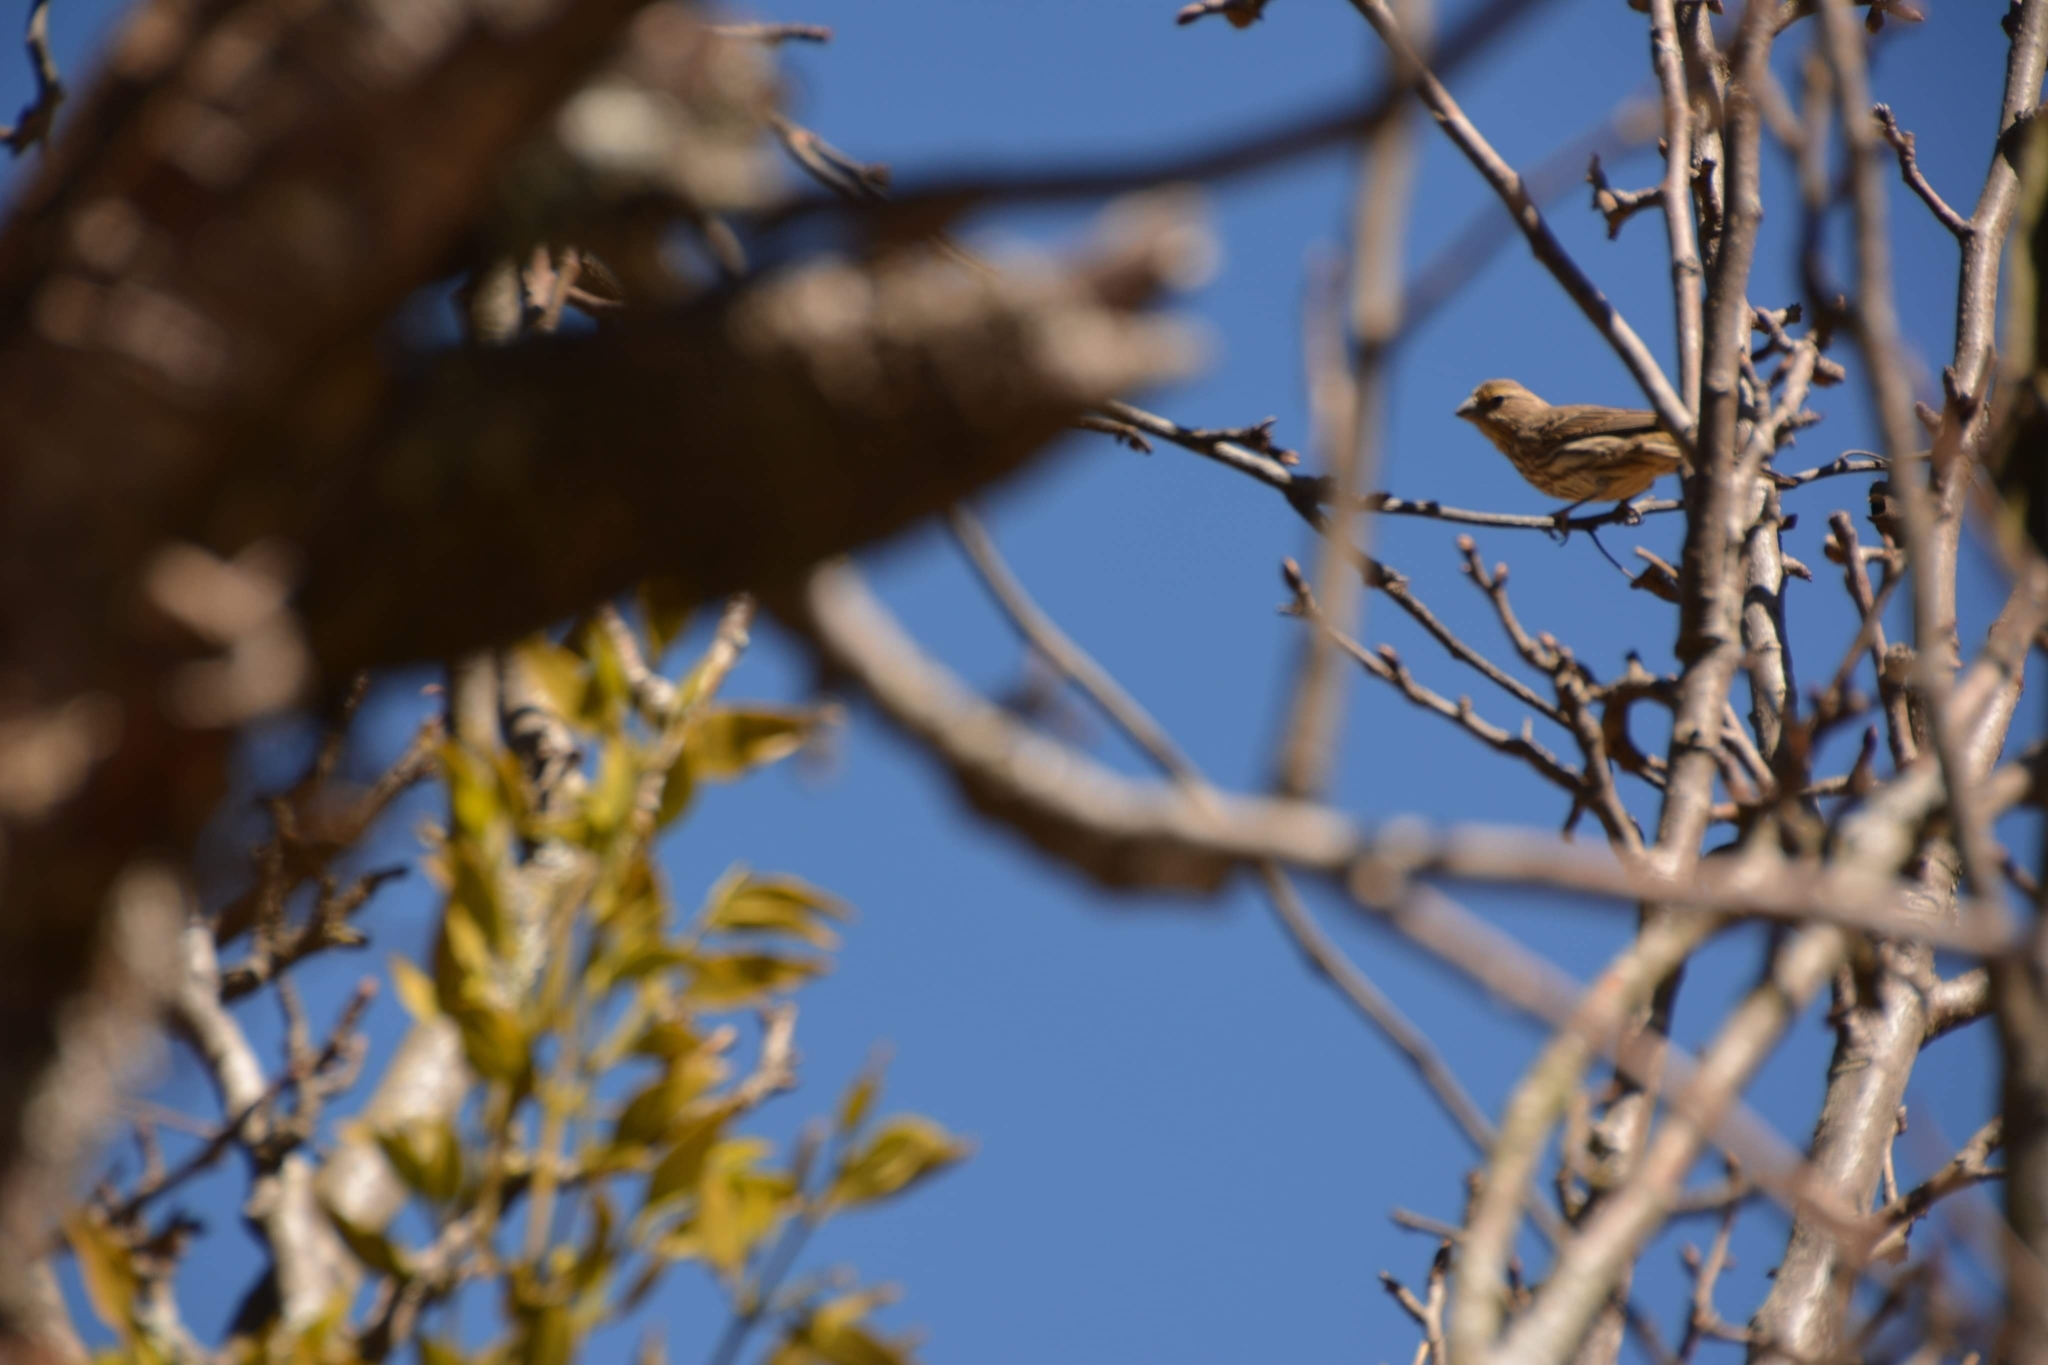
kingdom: Animalia
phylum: Chordata
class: Aves
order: Passeriformes
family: Fringillidae
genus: Haemorhous
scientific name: Haemorhous mexicanus
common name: House finch
